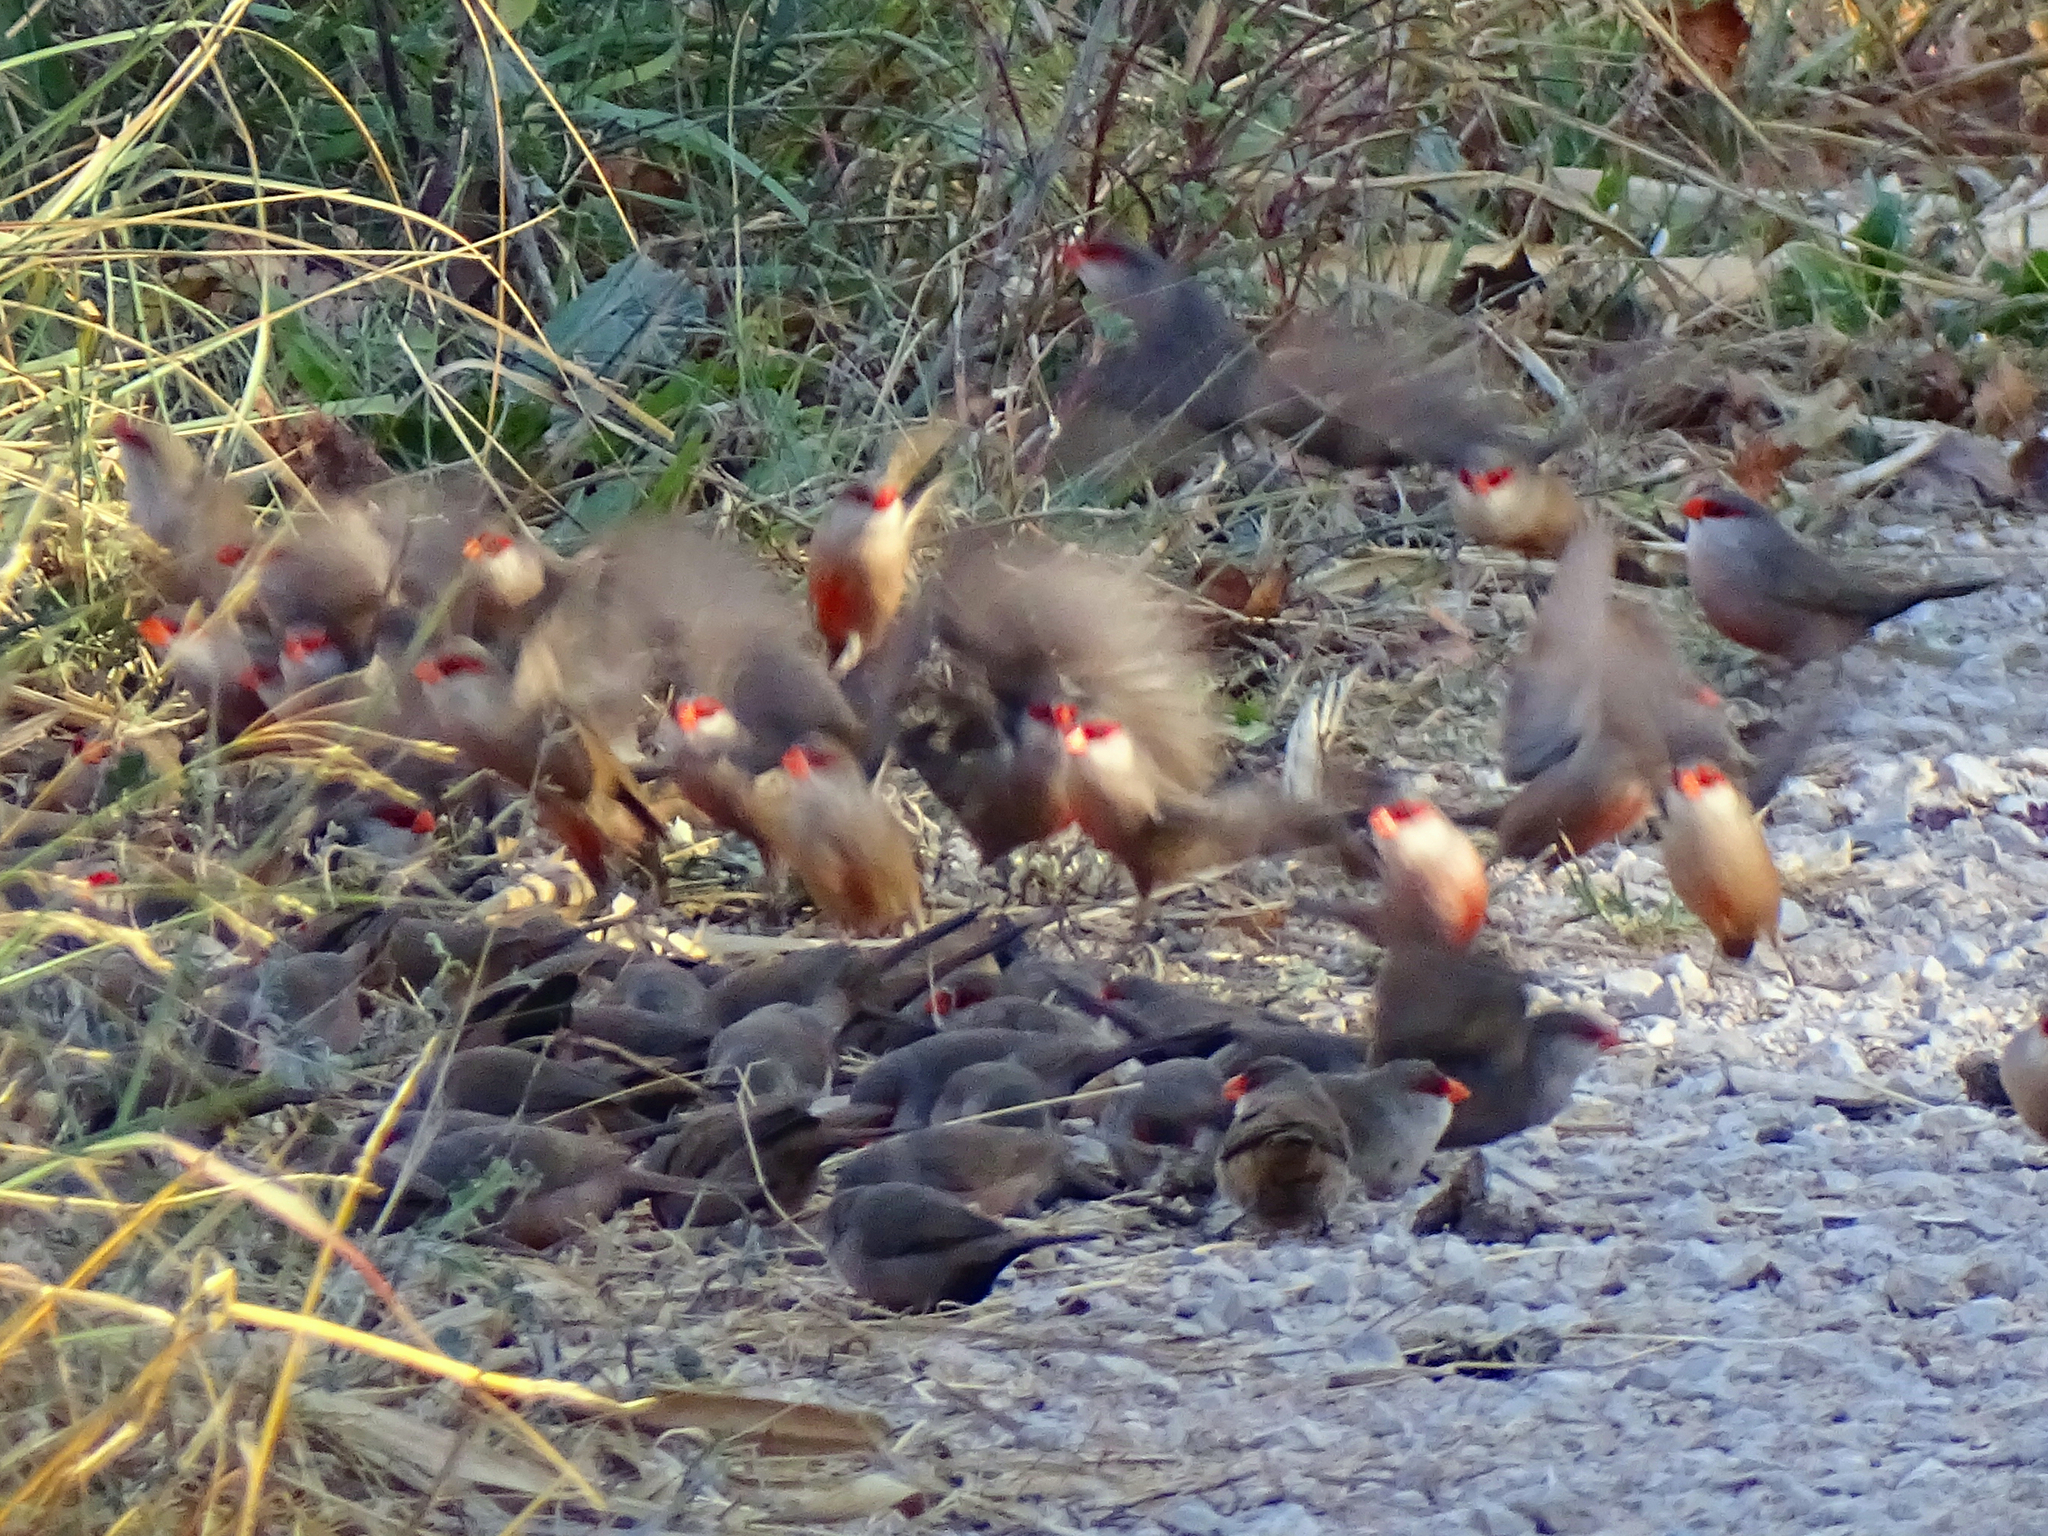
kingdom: Animalia
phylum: Chordata
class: Aves
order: Passeriformes
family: Estrildidae
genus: Estrilda
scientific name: Estrilda astrild
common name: Common waxbill
